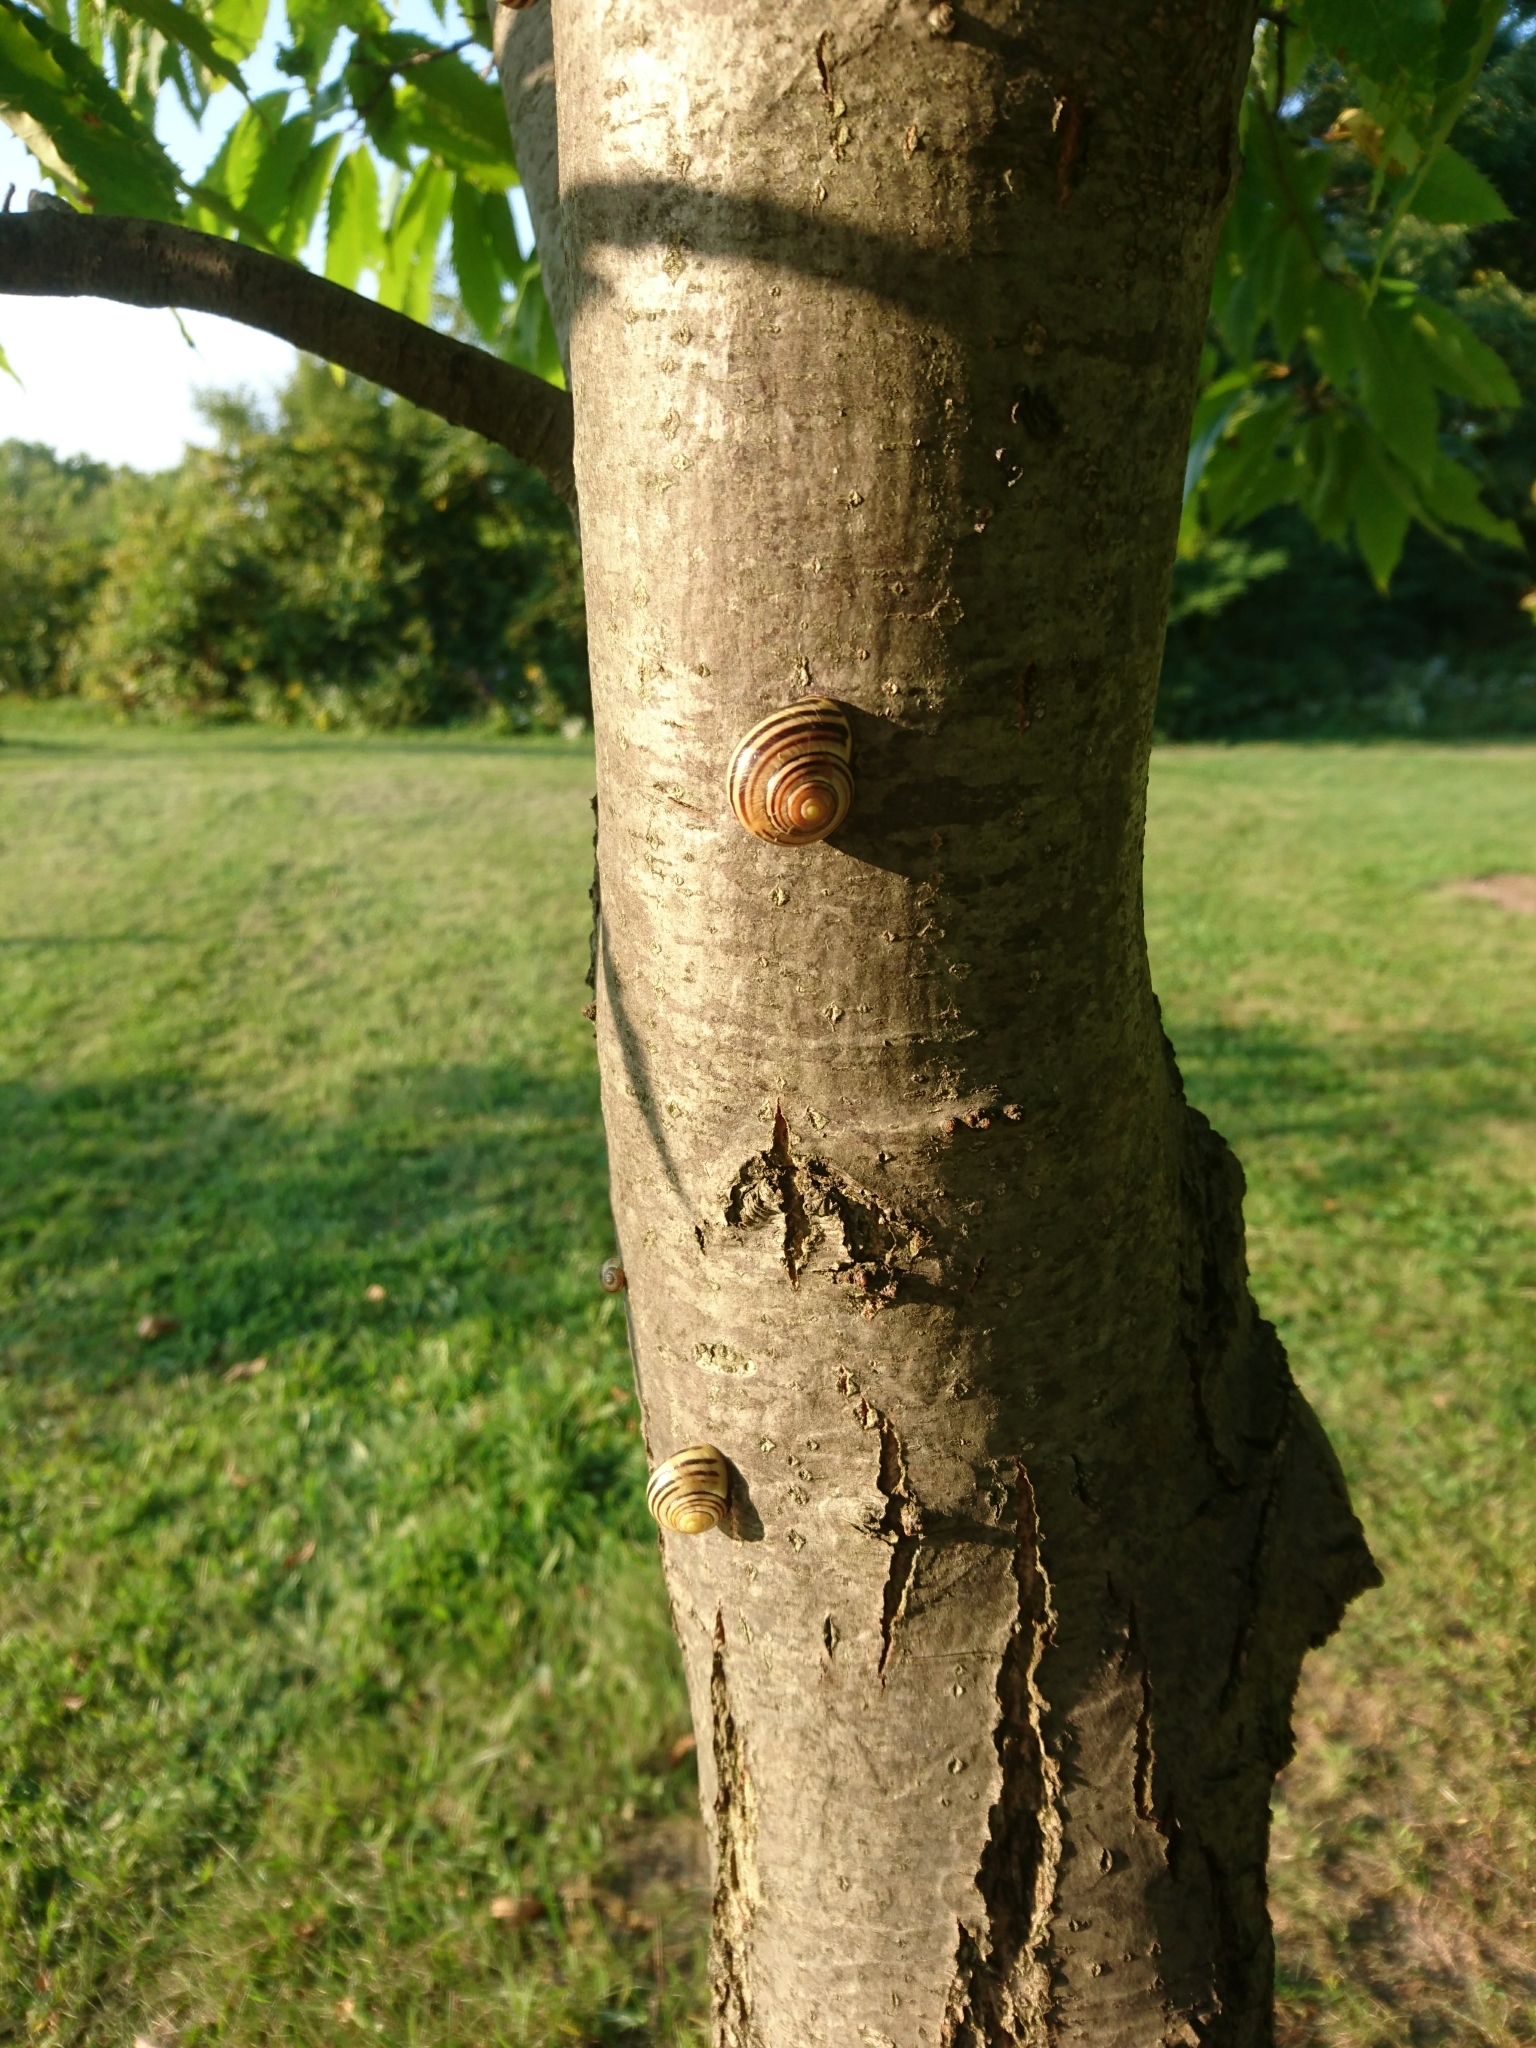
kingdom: Animalia
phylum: Mollusca
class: Gastropoda
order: Stylommatophora
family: Helicidae
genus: Cepaea
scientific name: Cepaea nemoralis
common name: Grovesnail
